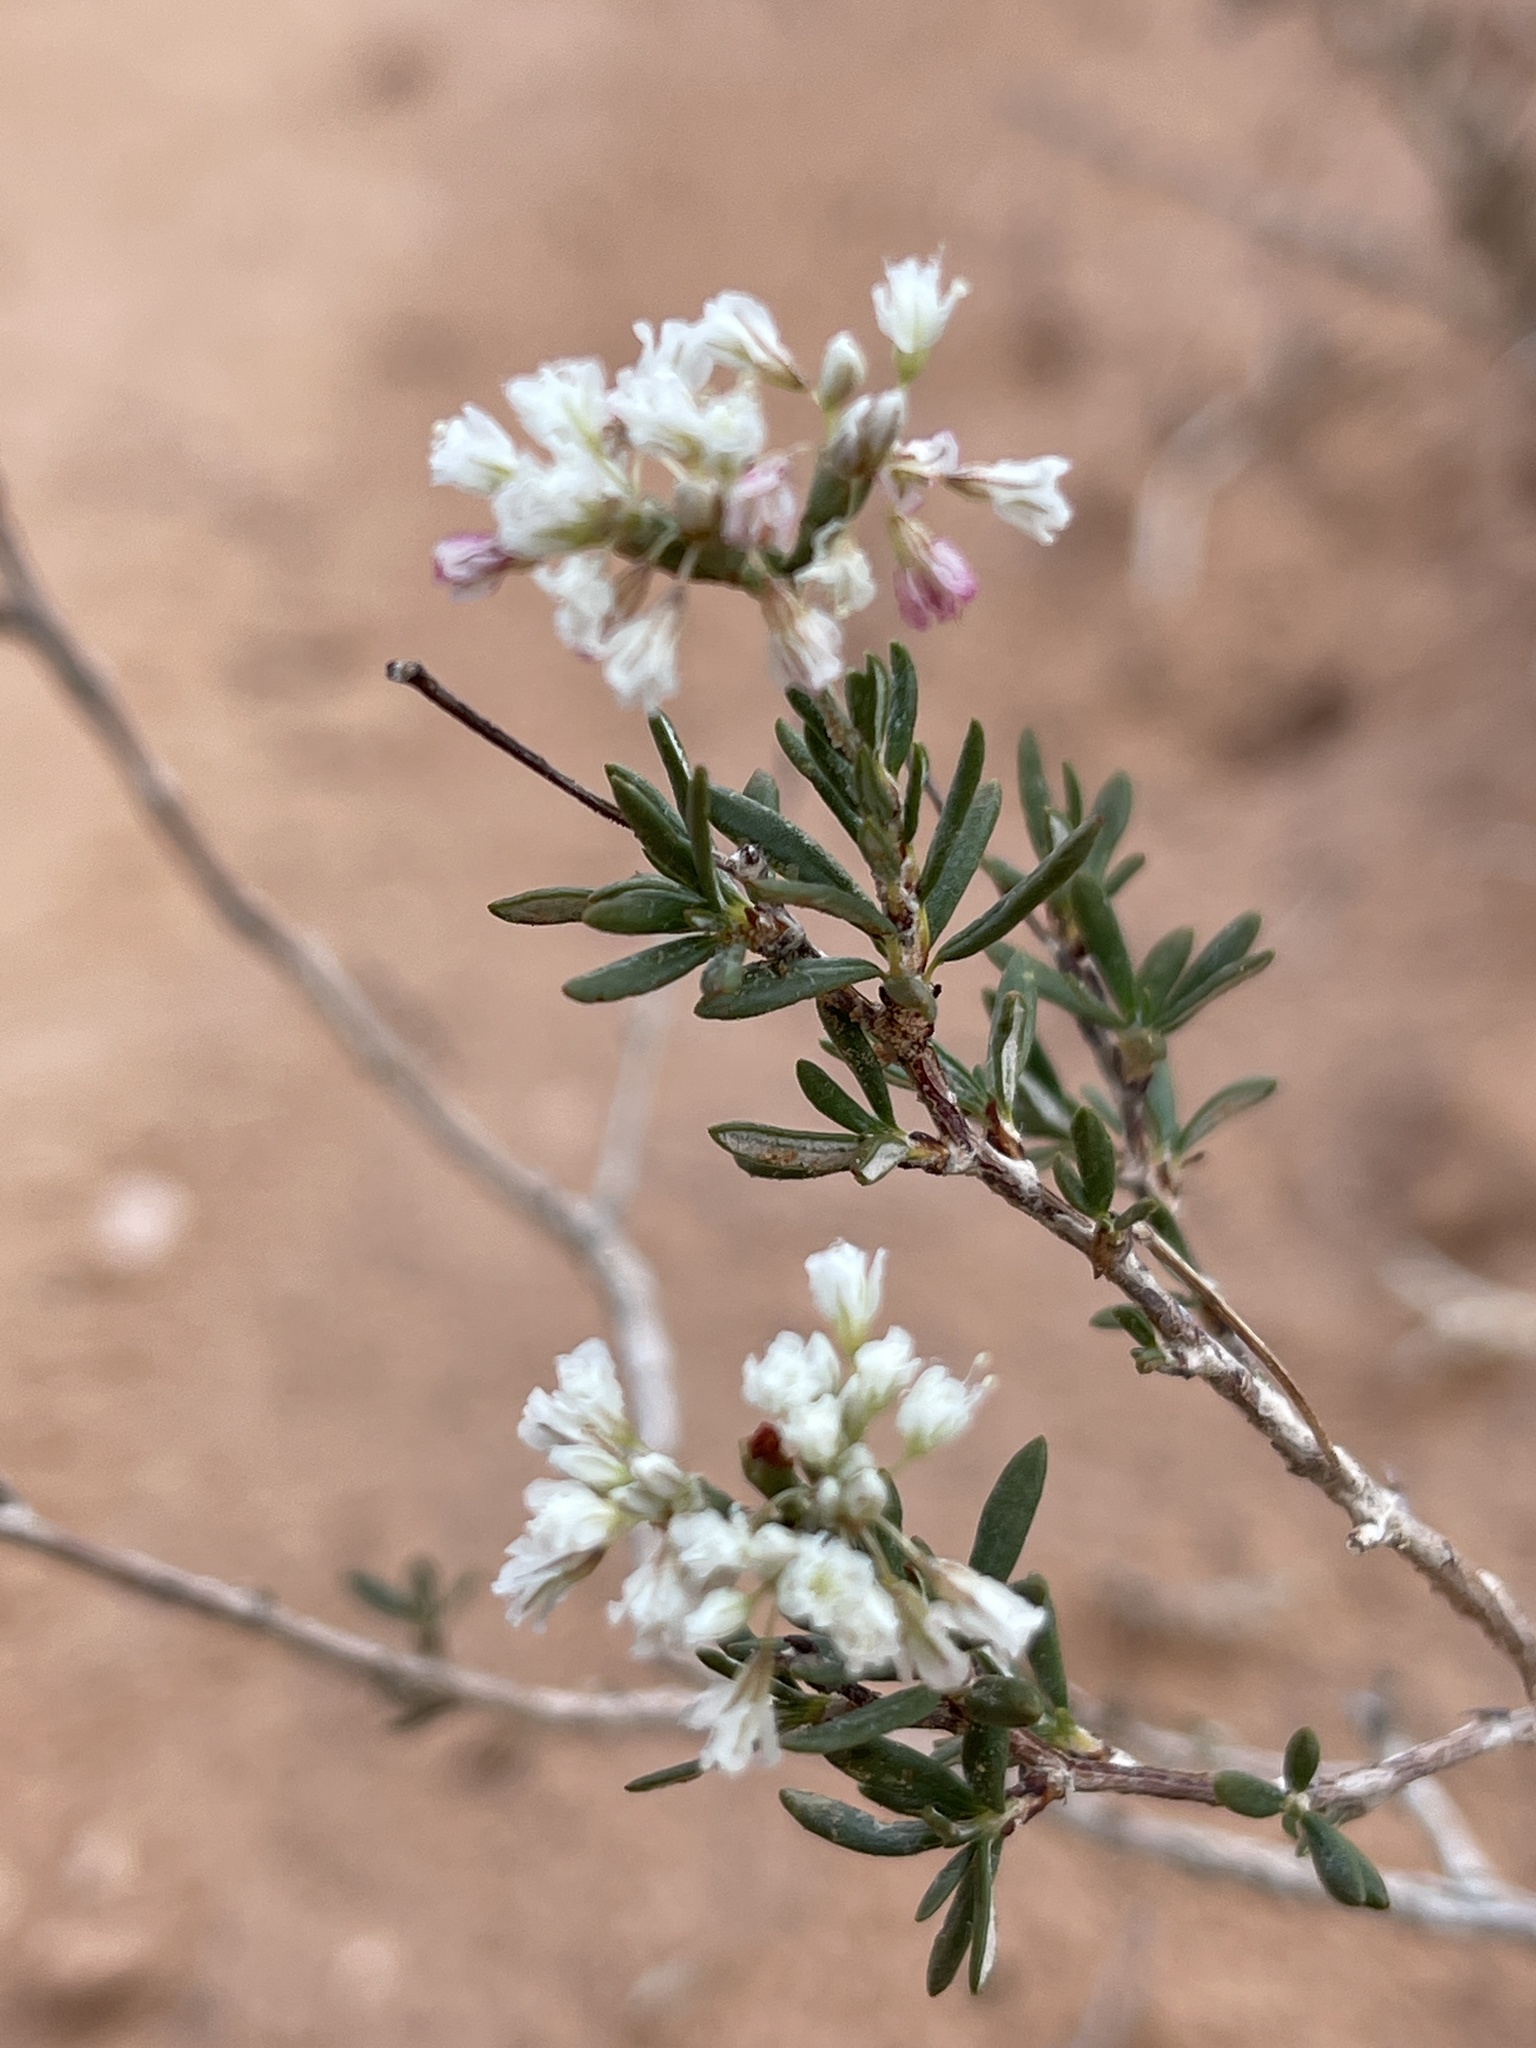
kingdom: Plantae
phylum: Tracheophyta
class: Magnoliopsida
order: Caryophyllales
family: Polygonaceae
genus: Eriogonum
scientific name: Eriogonum microtheca
